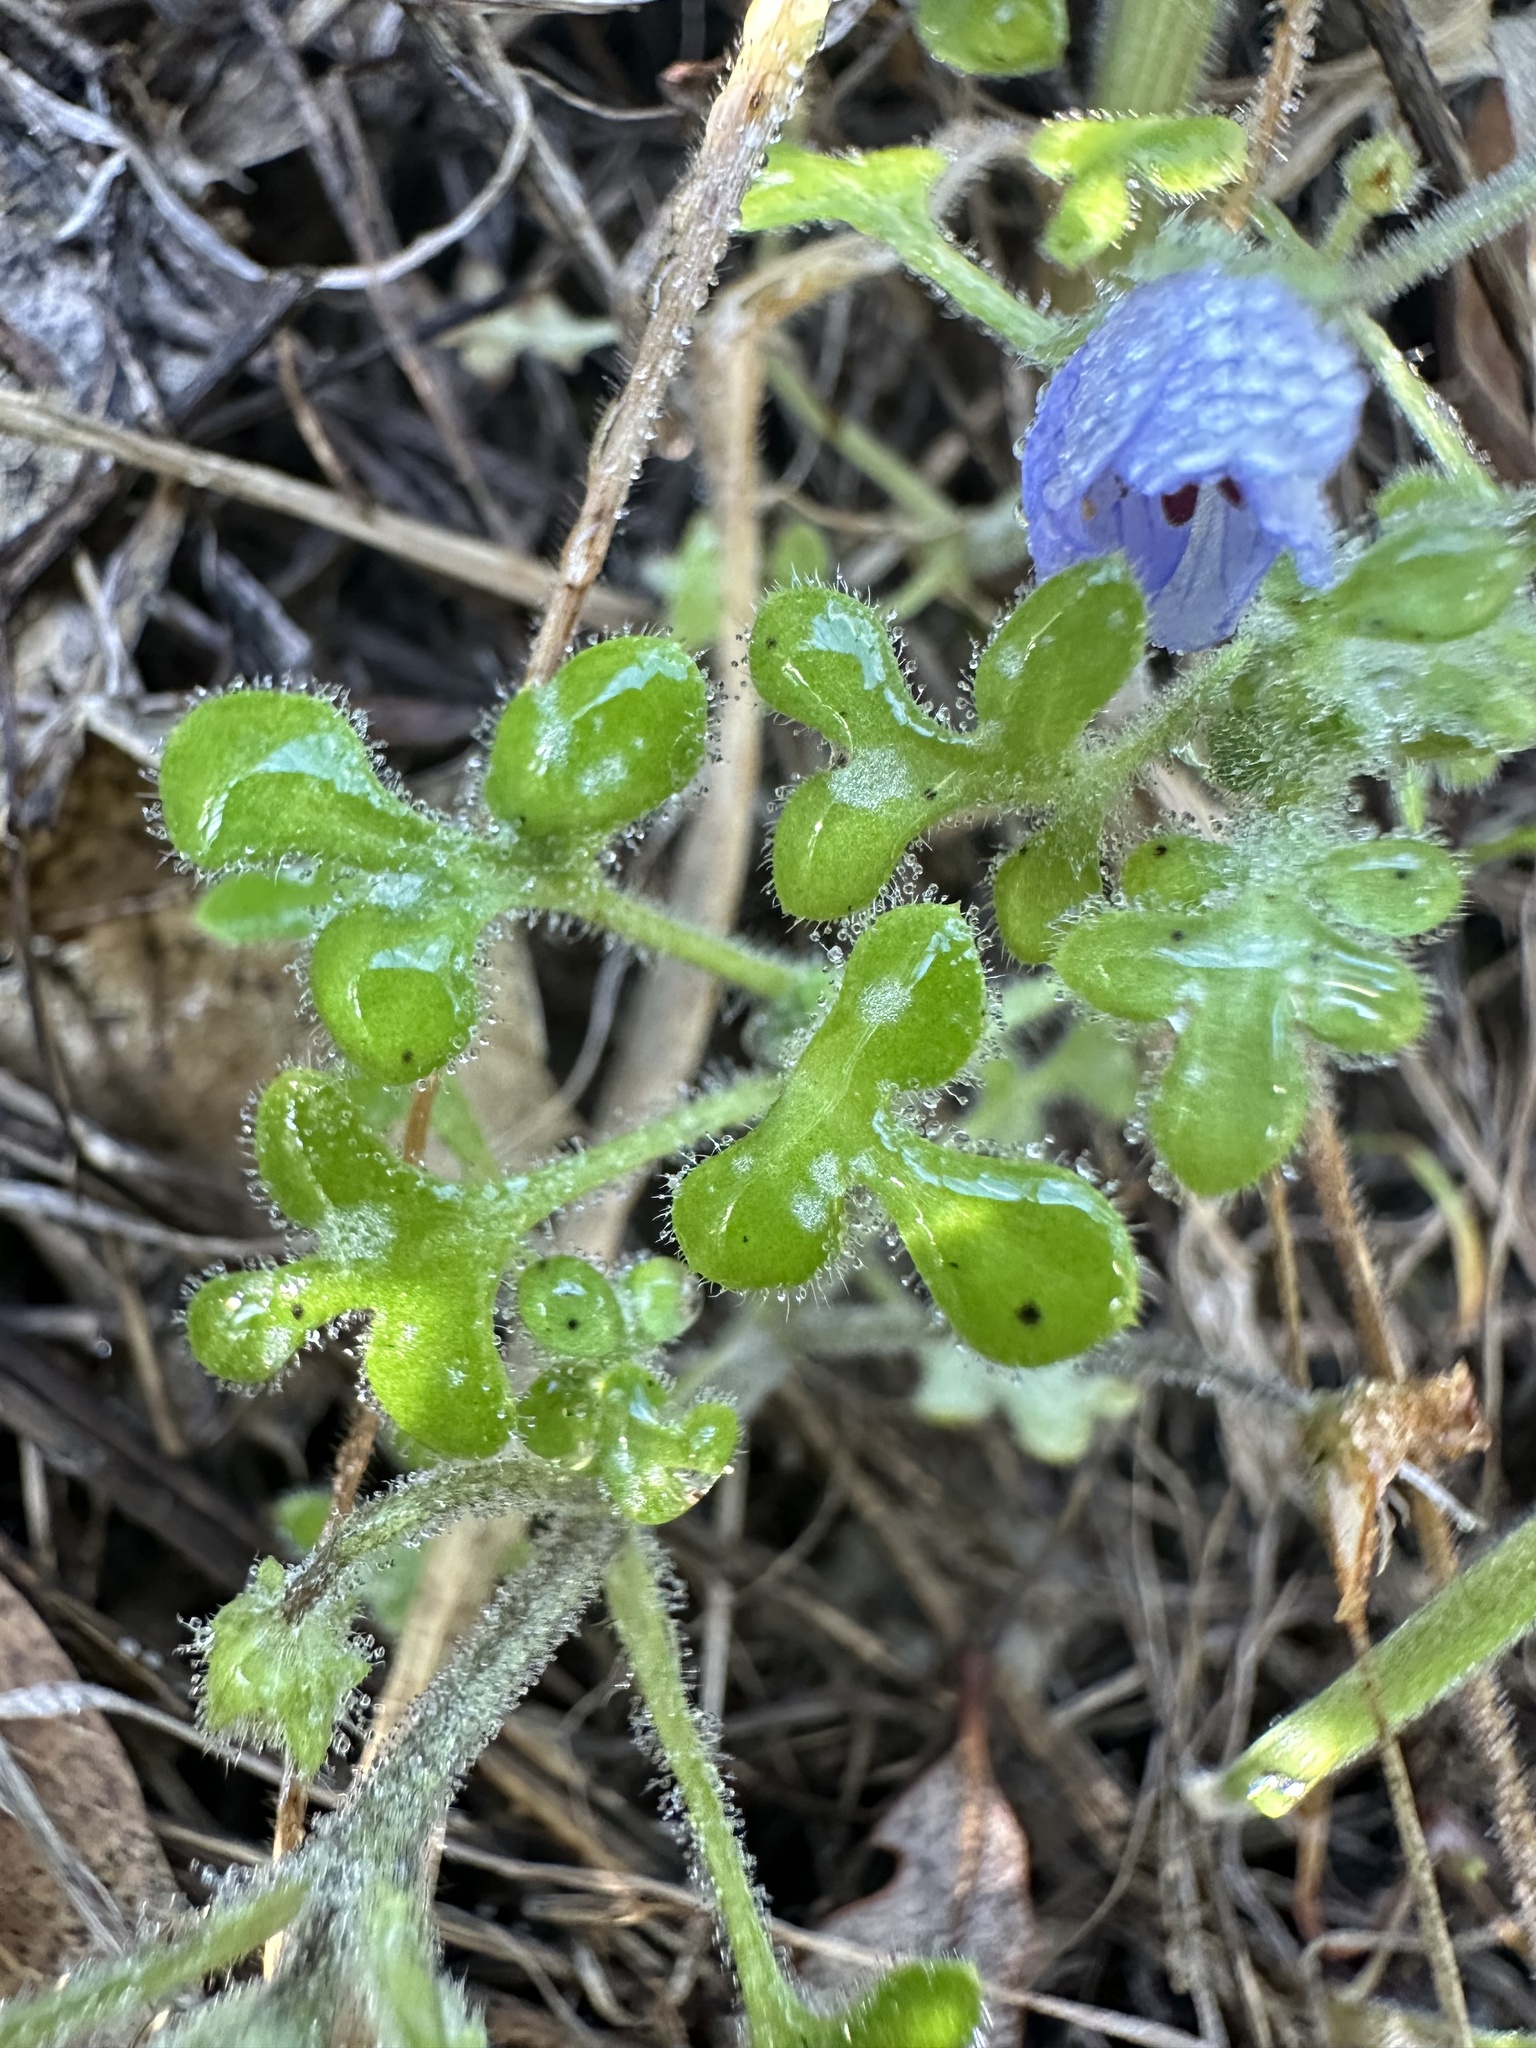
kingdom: Plantae
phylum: Tracheophyta
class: Magnoliopsida
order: Boraginales
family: Hydrophyllaceae
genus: Nemophila
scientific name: Nemophila pedunculata
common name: Little-foot baby-blue-eyes
